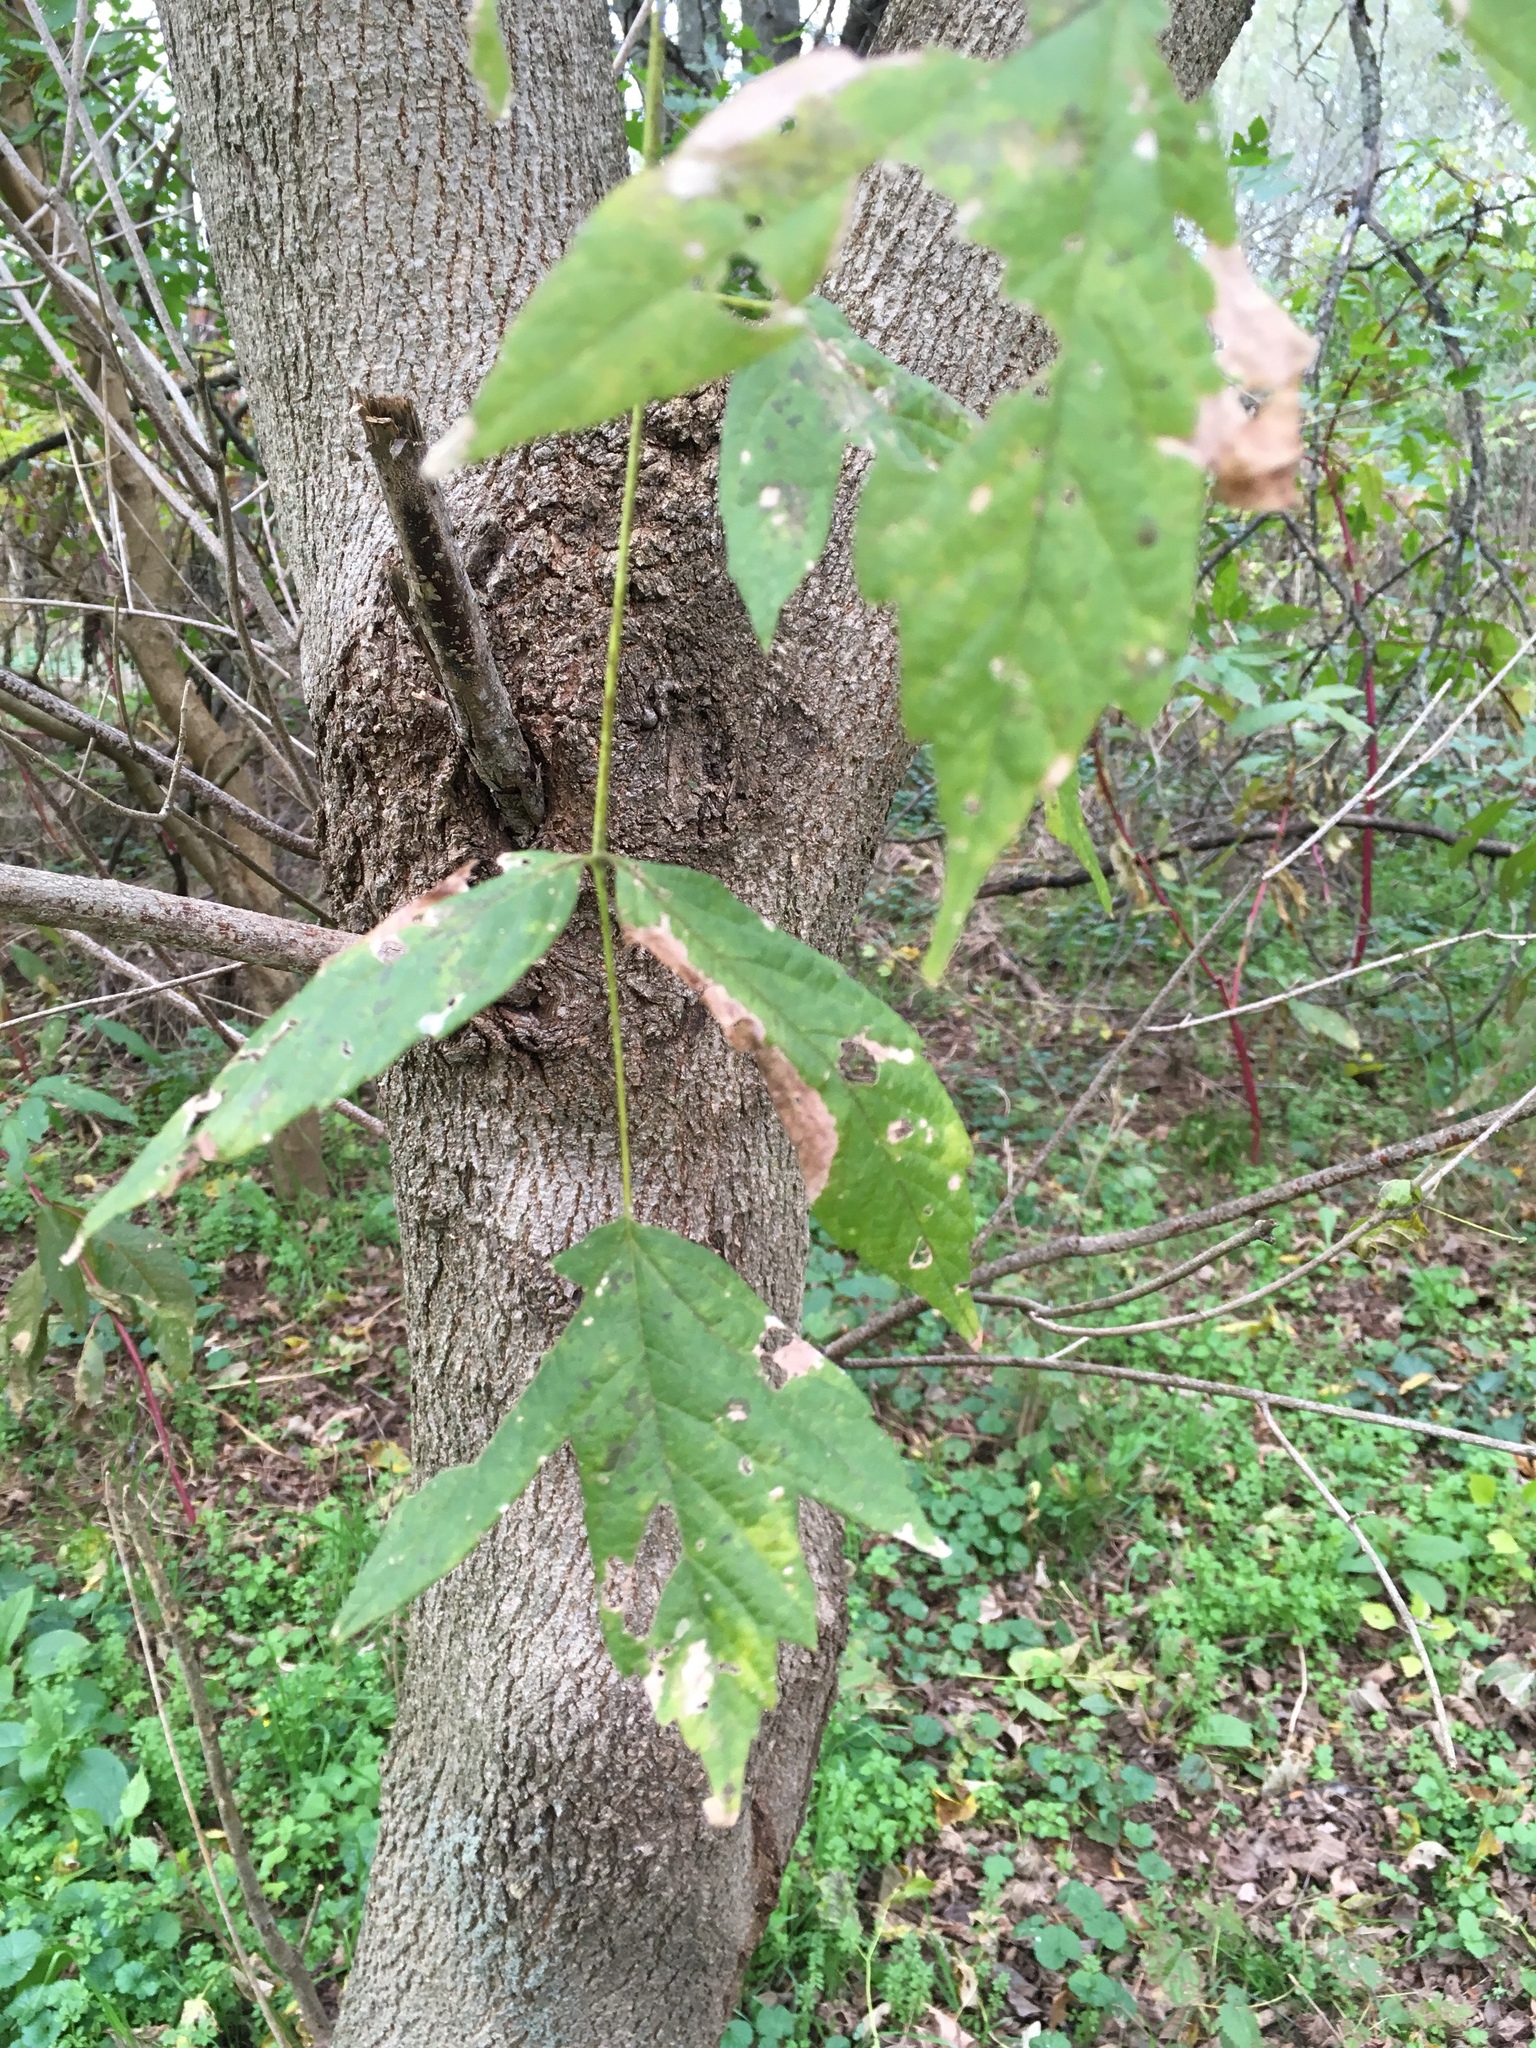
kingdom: Plantae
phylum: Tracheophyta
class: Magnoliopsida
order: Sapindales
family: Sapindaceae
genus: Acer
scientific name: Acer negundo
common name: Ashleaf maple
